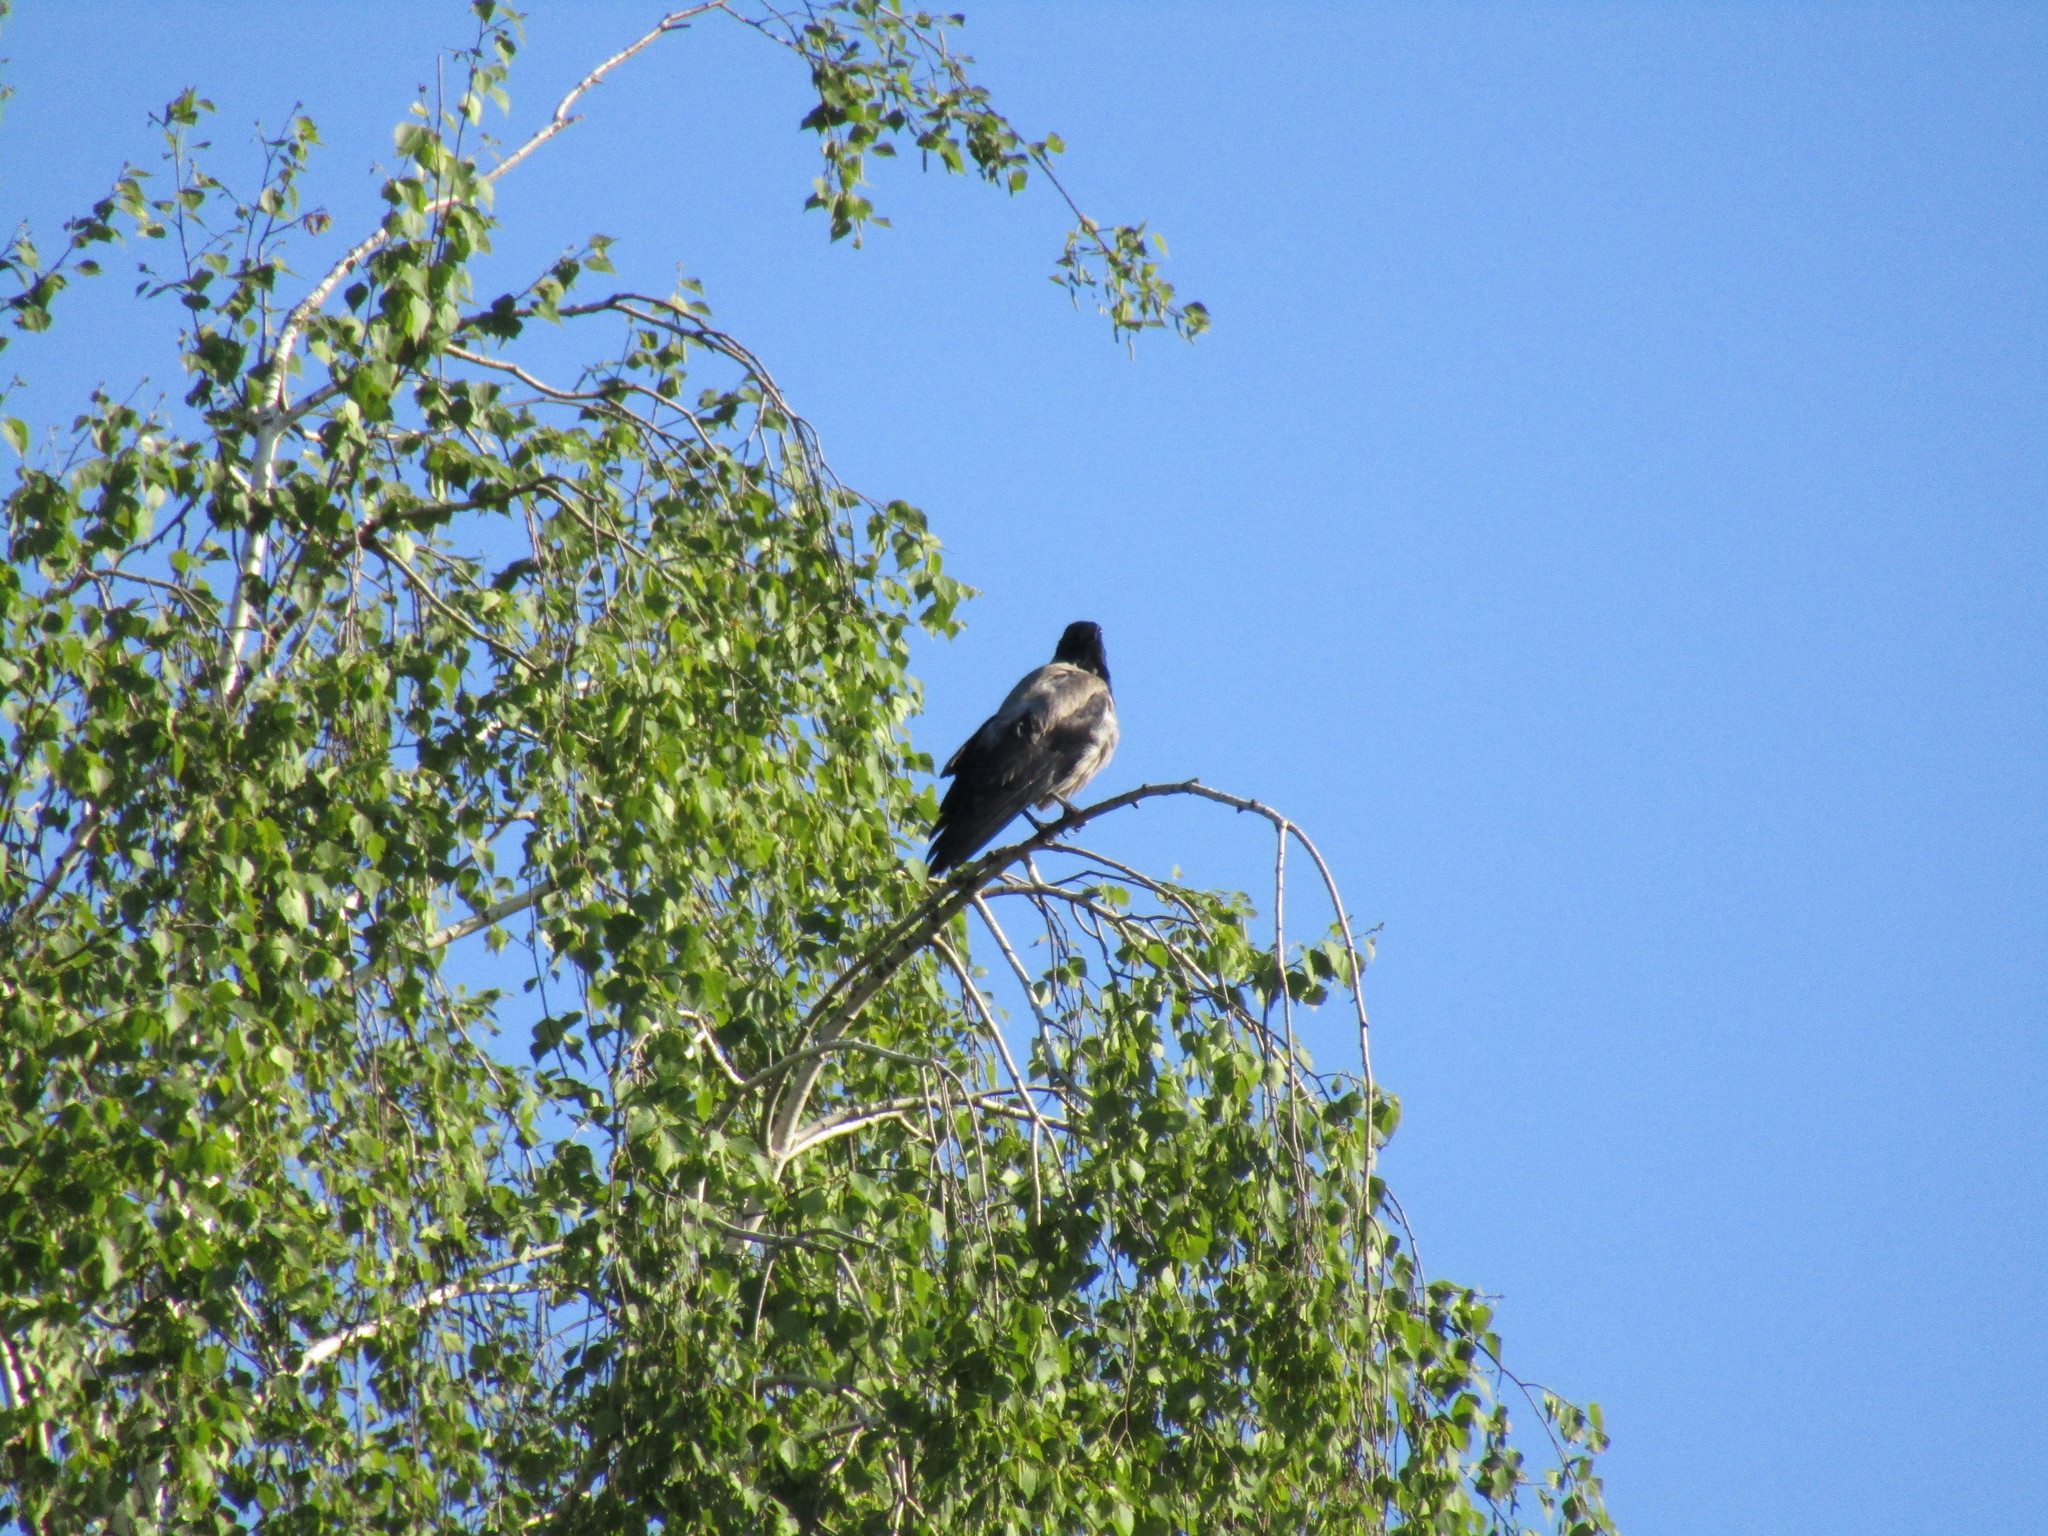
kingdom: Animalia
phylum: Chordata
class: Aves
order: Passeriformes
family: Corvidae
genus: Corvus
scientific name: Corvus cornix
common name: Hooded crow
